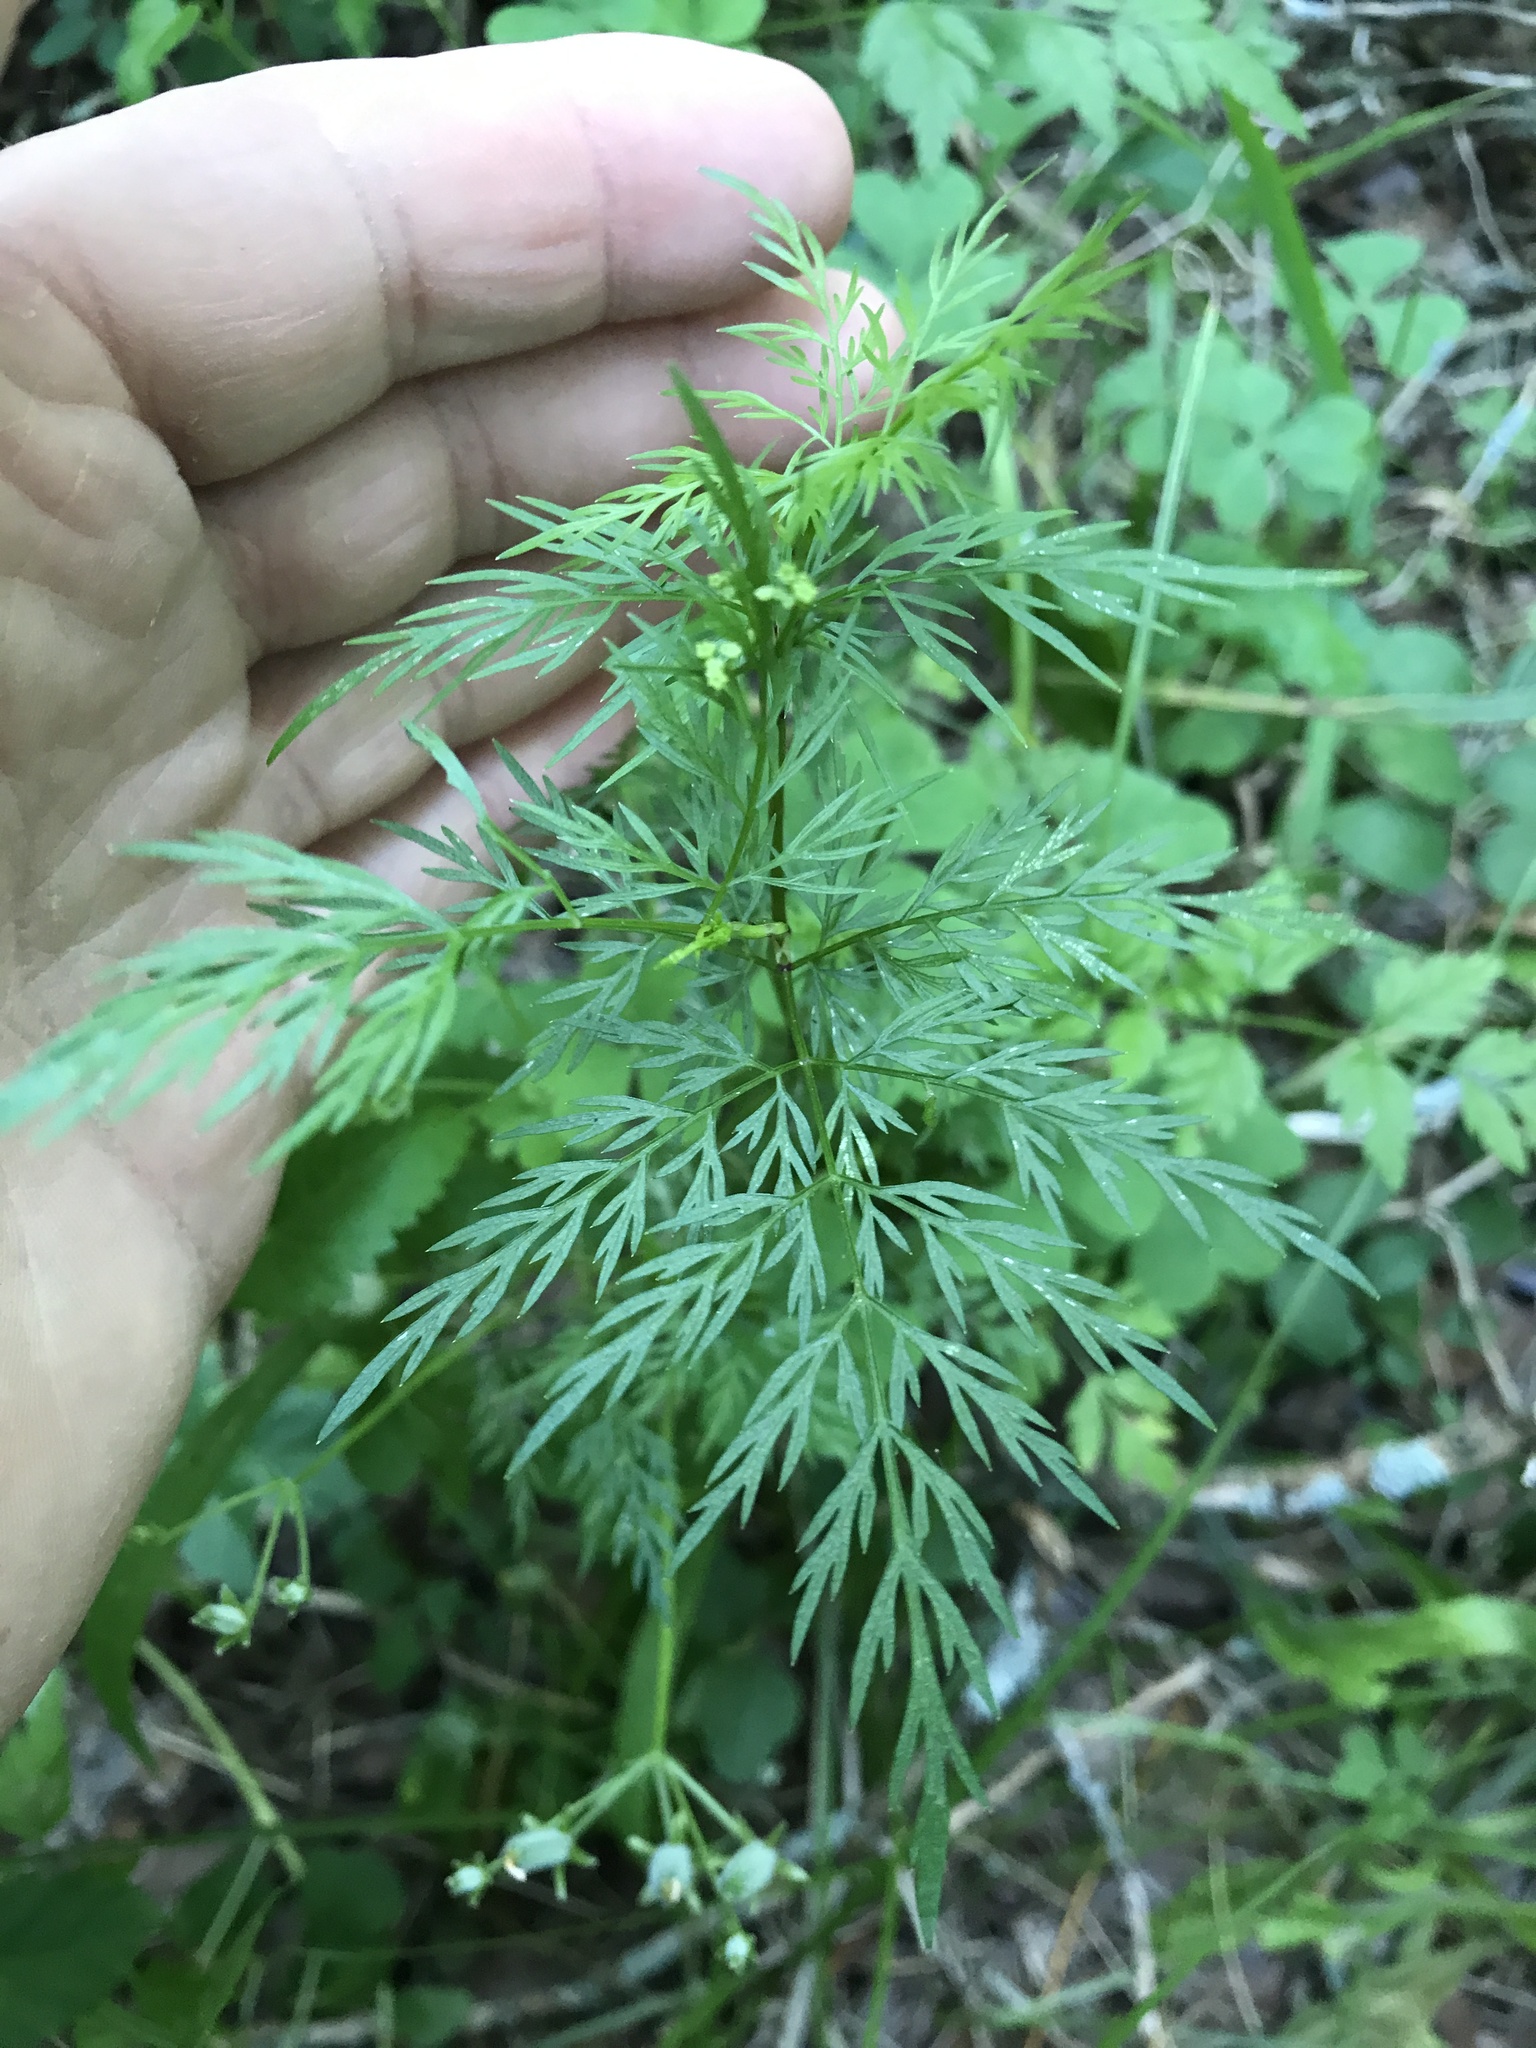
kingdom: Plantae
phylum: Tracheophyta
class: Magnoliopsida
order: Apiales
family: Apiaceae
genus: Trepocarpus
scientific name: Trepocarpus aethusae
